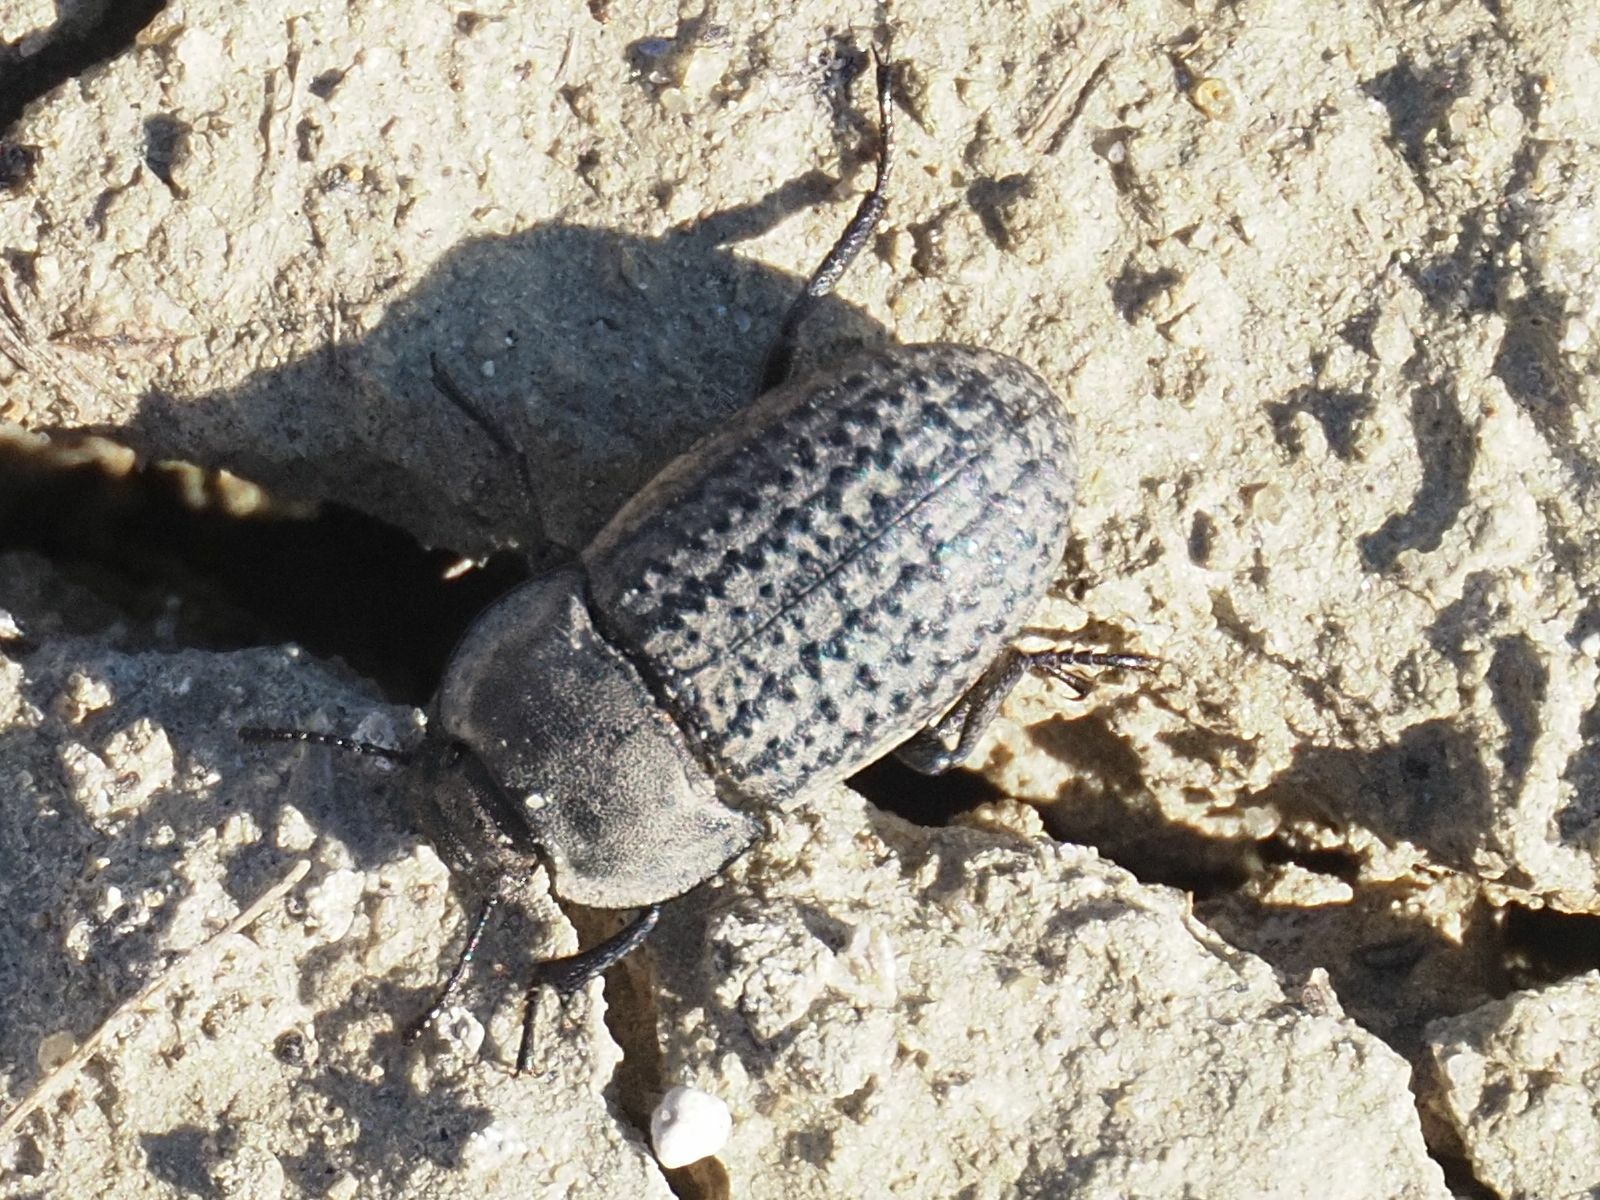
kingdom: Animalia
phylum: Arthropoda
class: Insecta
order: Coleoptera
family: Tenebrionidae
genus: Opatrum
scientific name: Opatrum sabulosum
